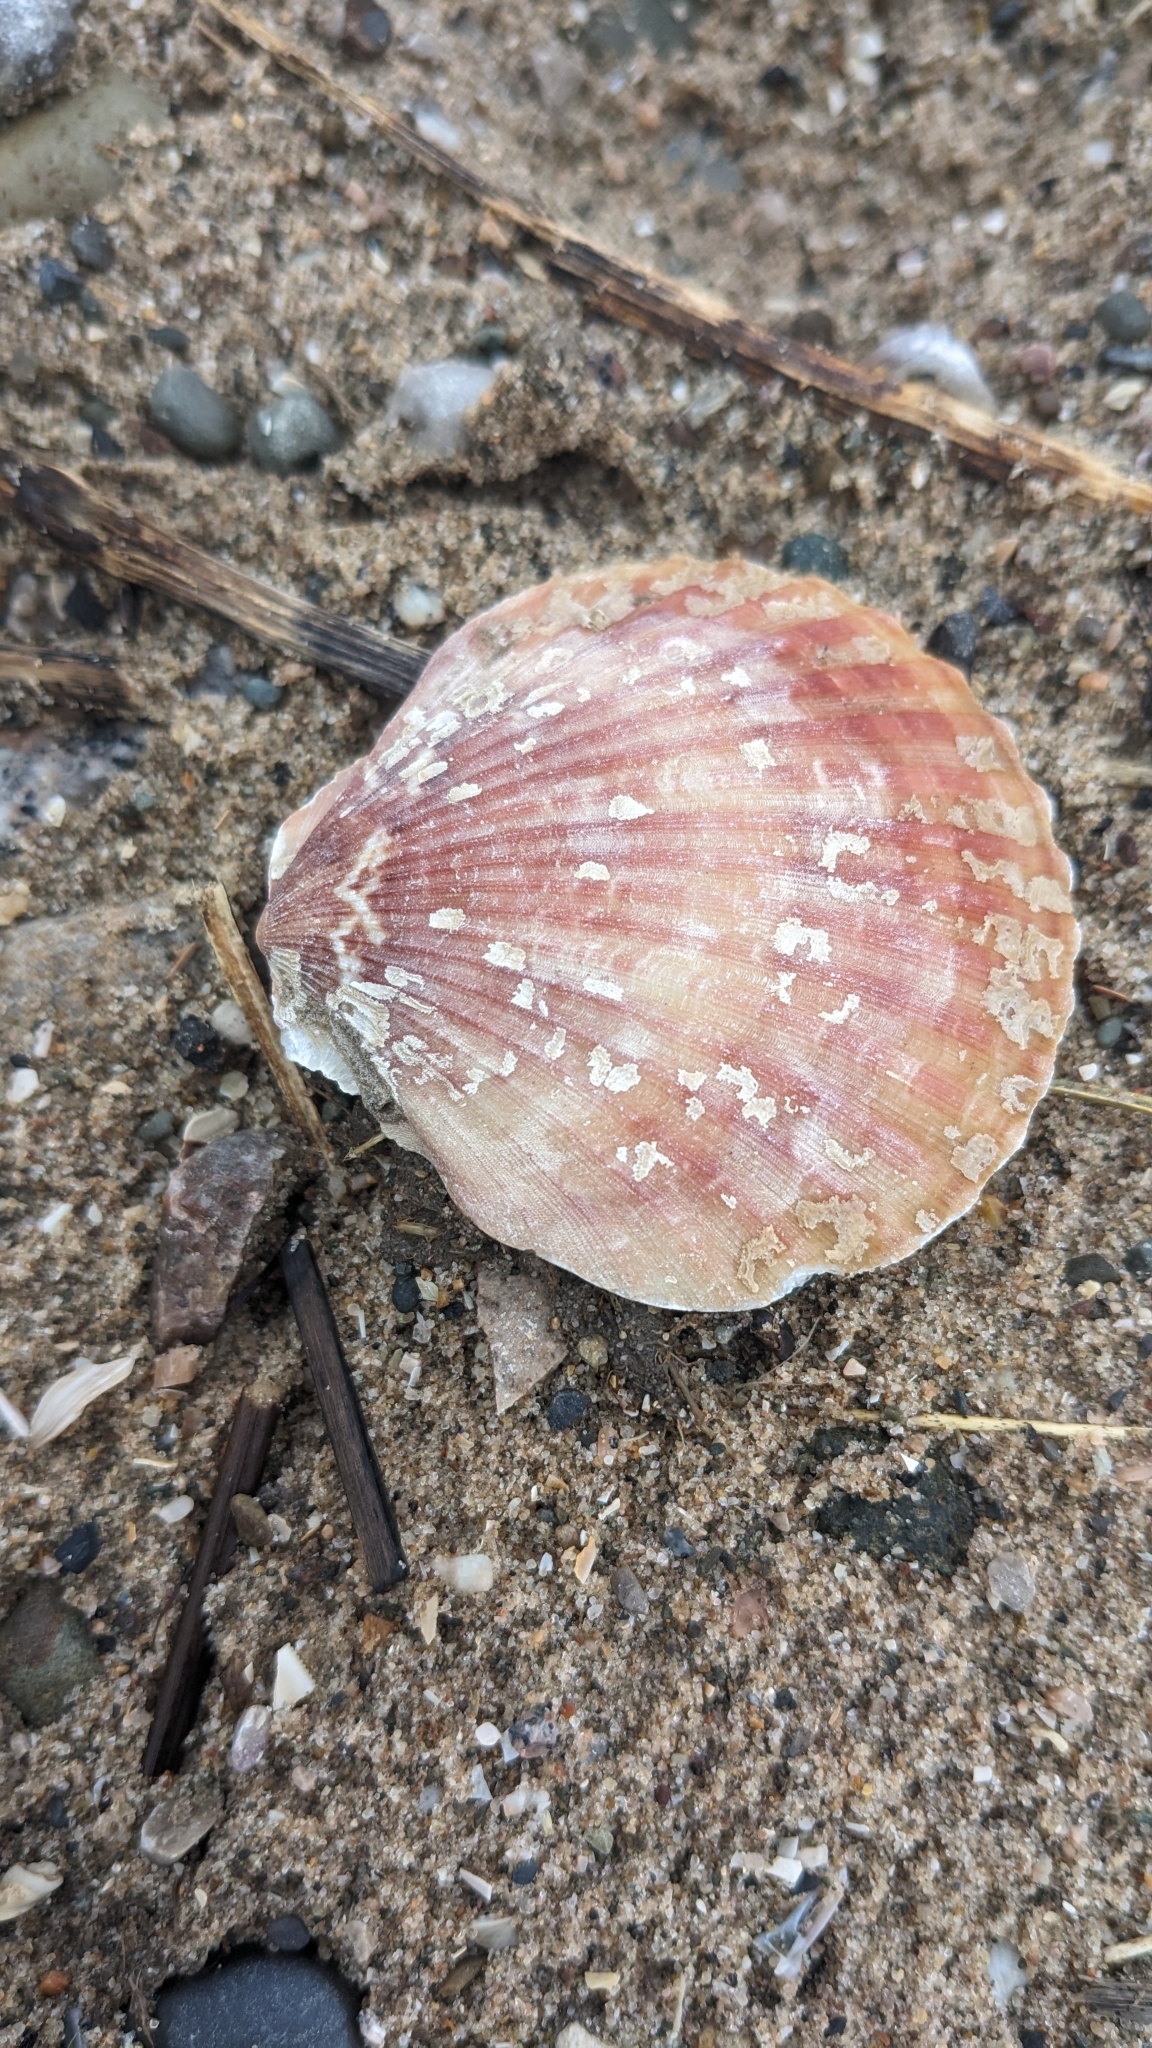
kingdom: Animalia
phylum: Mollusca
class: Bivalvia
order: Pectinida
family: Pectinidae
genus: Aequipecten
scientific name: Aequipecten opercularis
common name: Queen scallop
